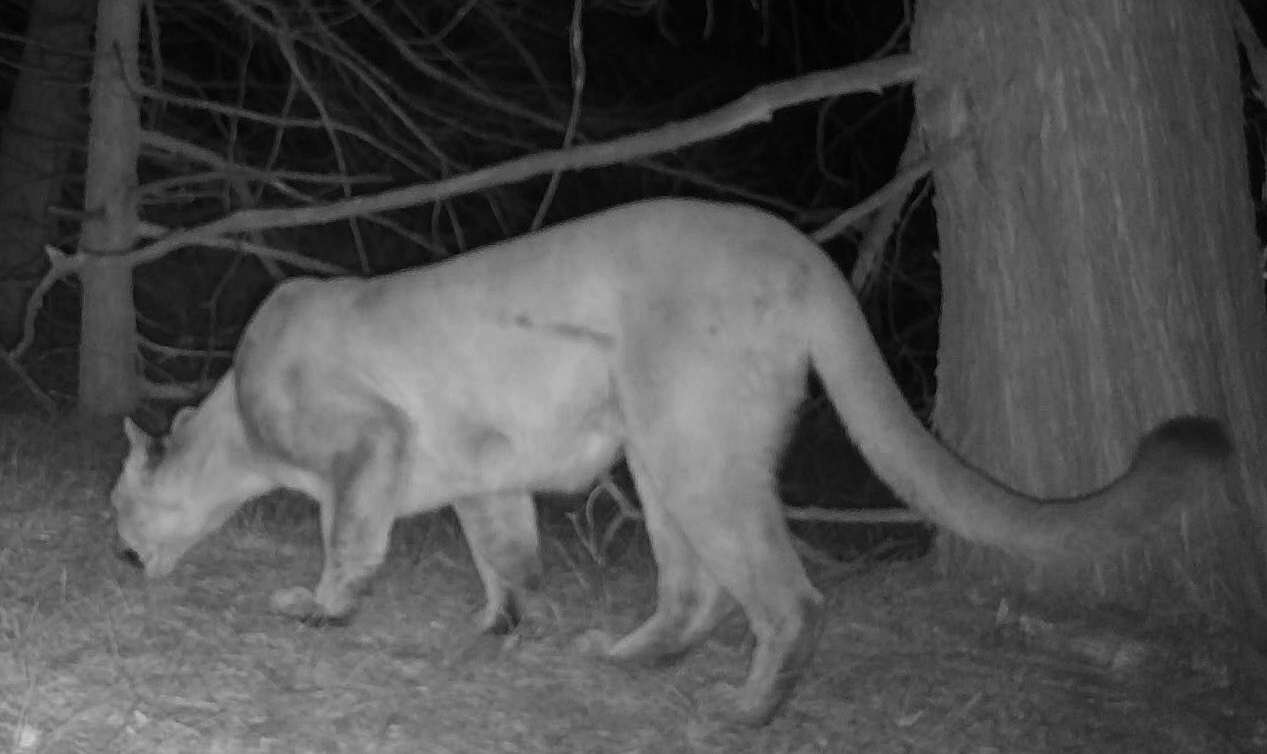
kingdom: Animalia
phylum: Chordata
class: Mammalia
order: Carnivora
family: Felidae
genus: Puma
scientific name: Puma concolor
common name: Puma
